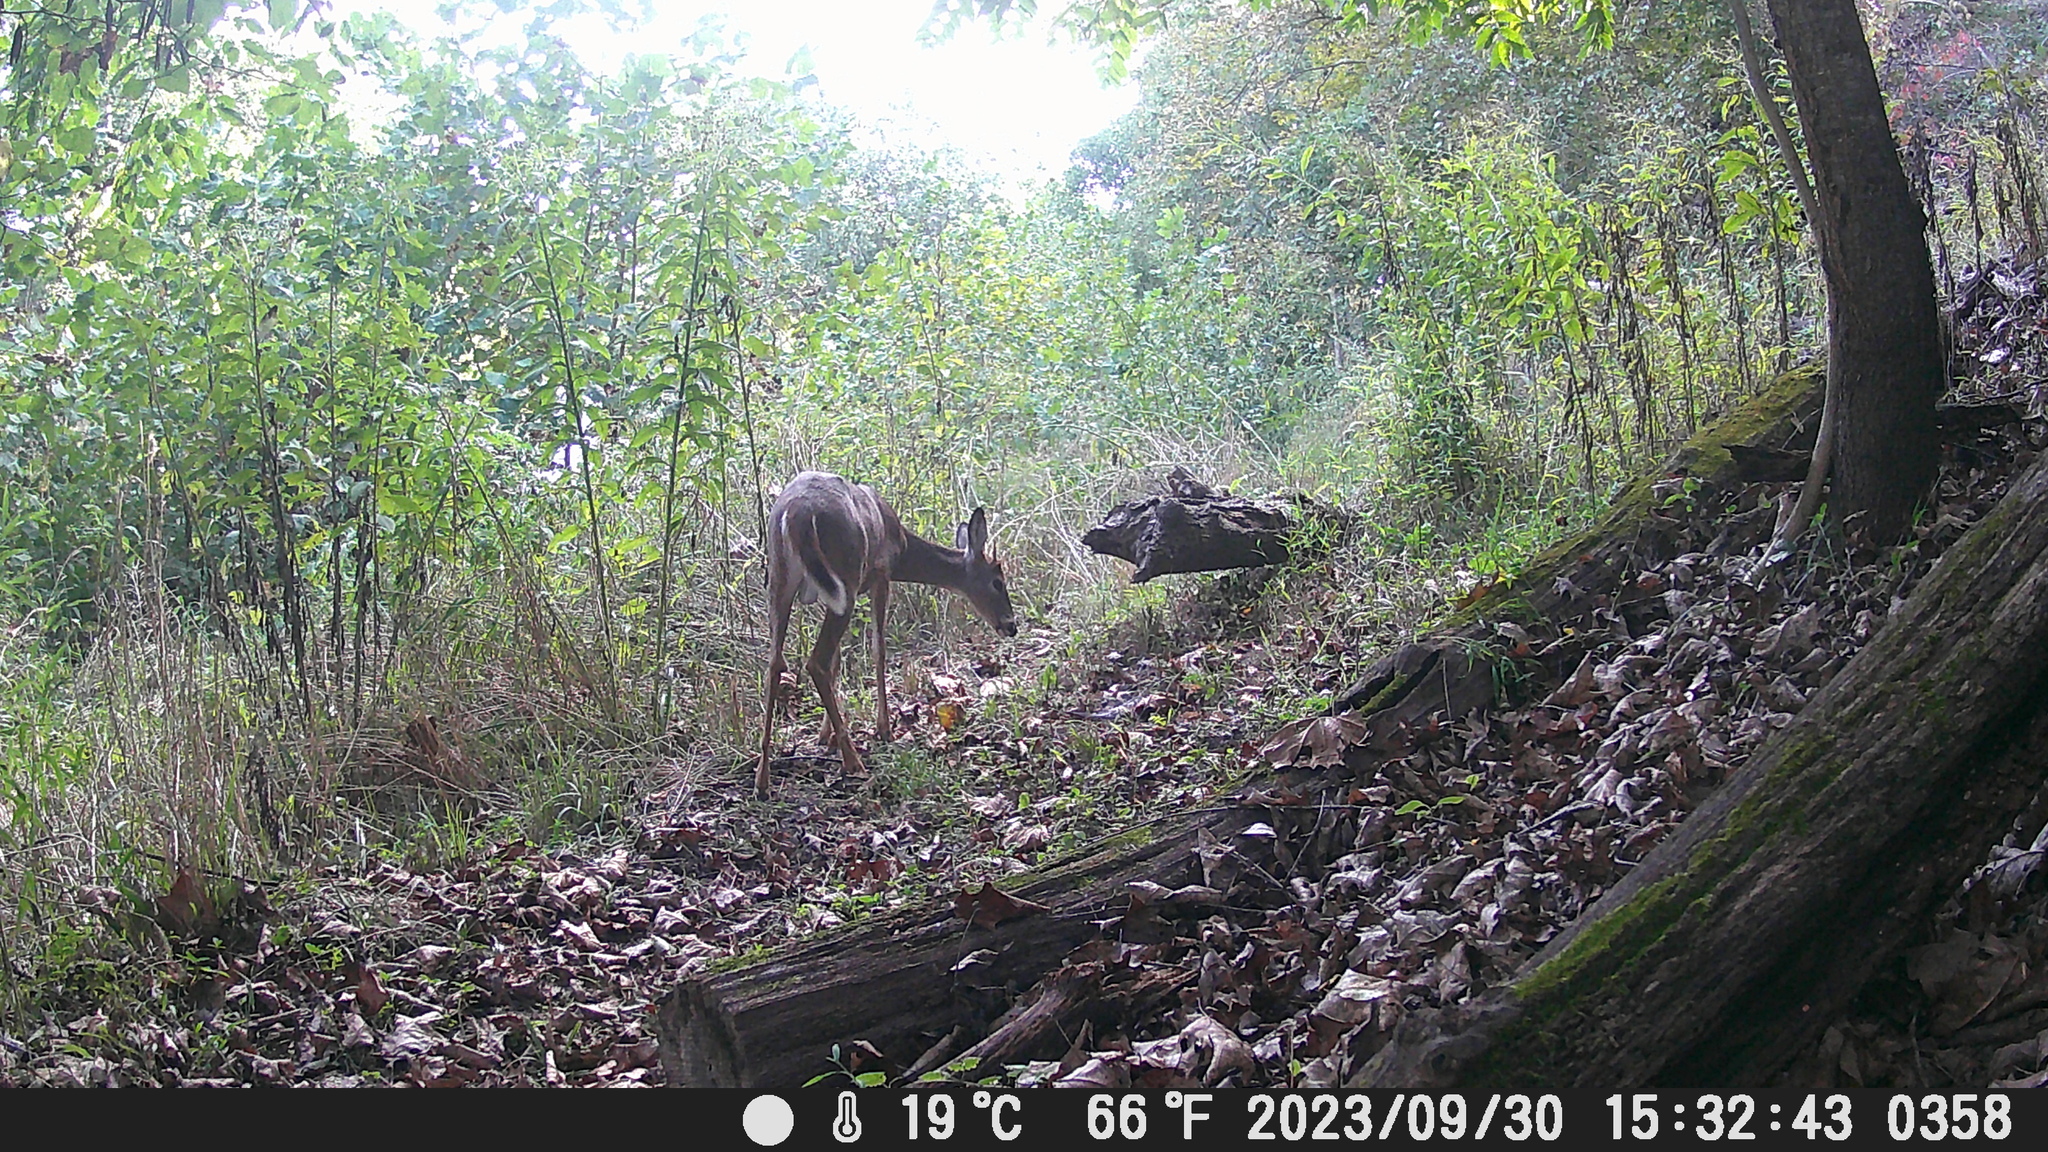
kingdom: Animalia
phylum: Chordata
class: Mammalia
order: Artiodactyla
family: Cervidae
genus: Odocoileus
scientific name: Odocoileus virginianus
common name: White-tailed deer
